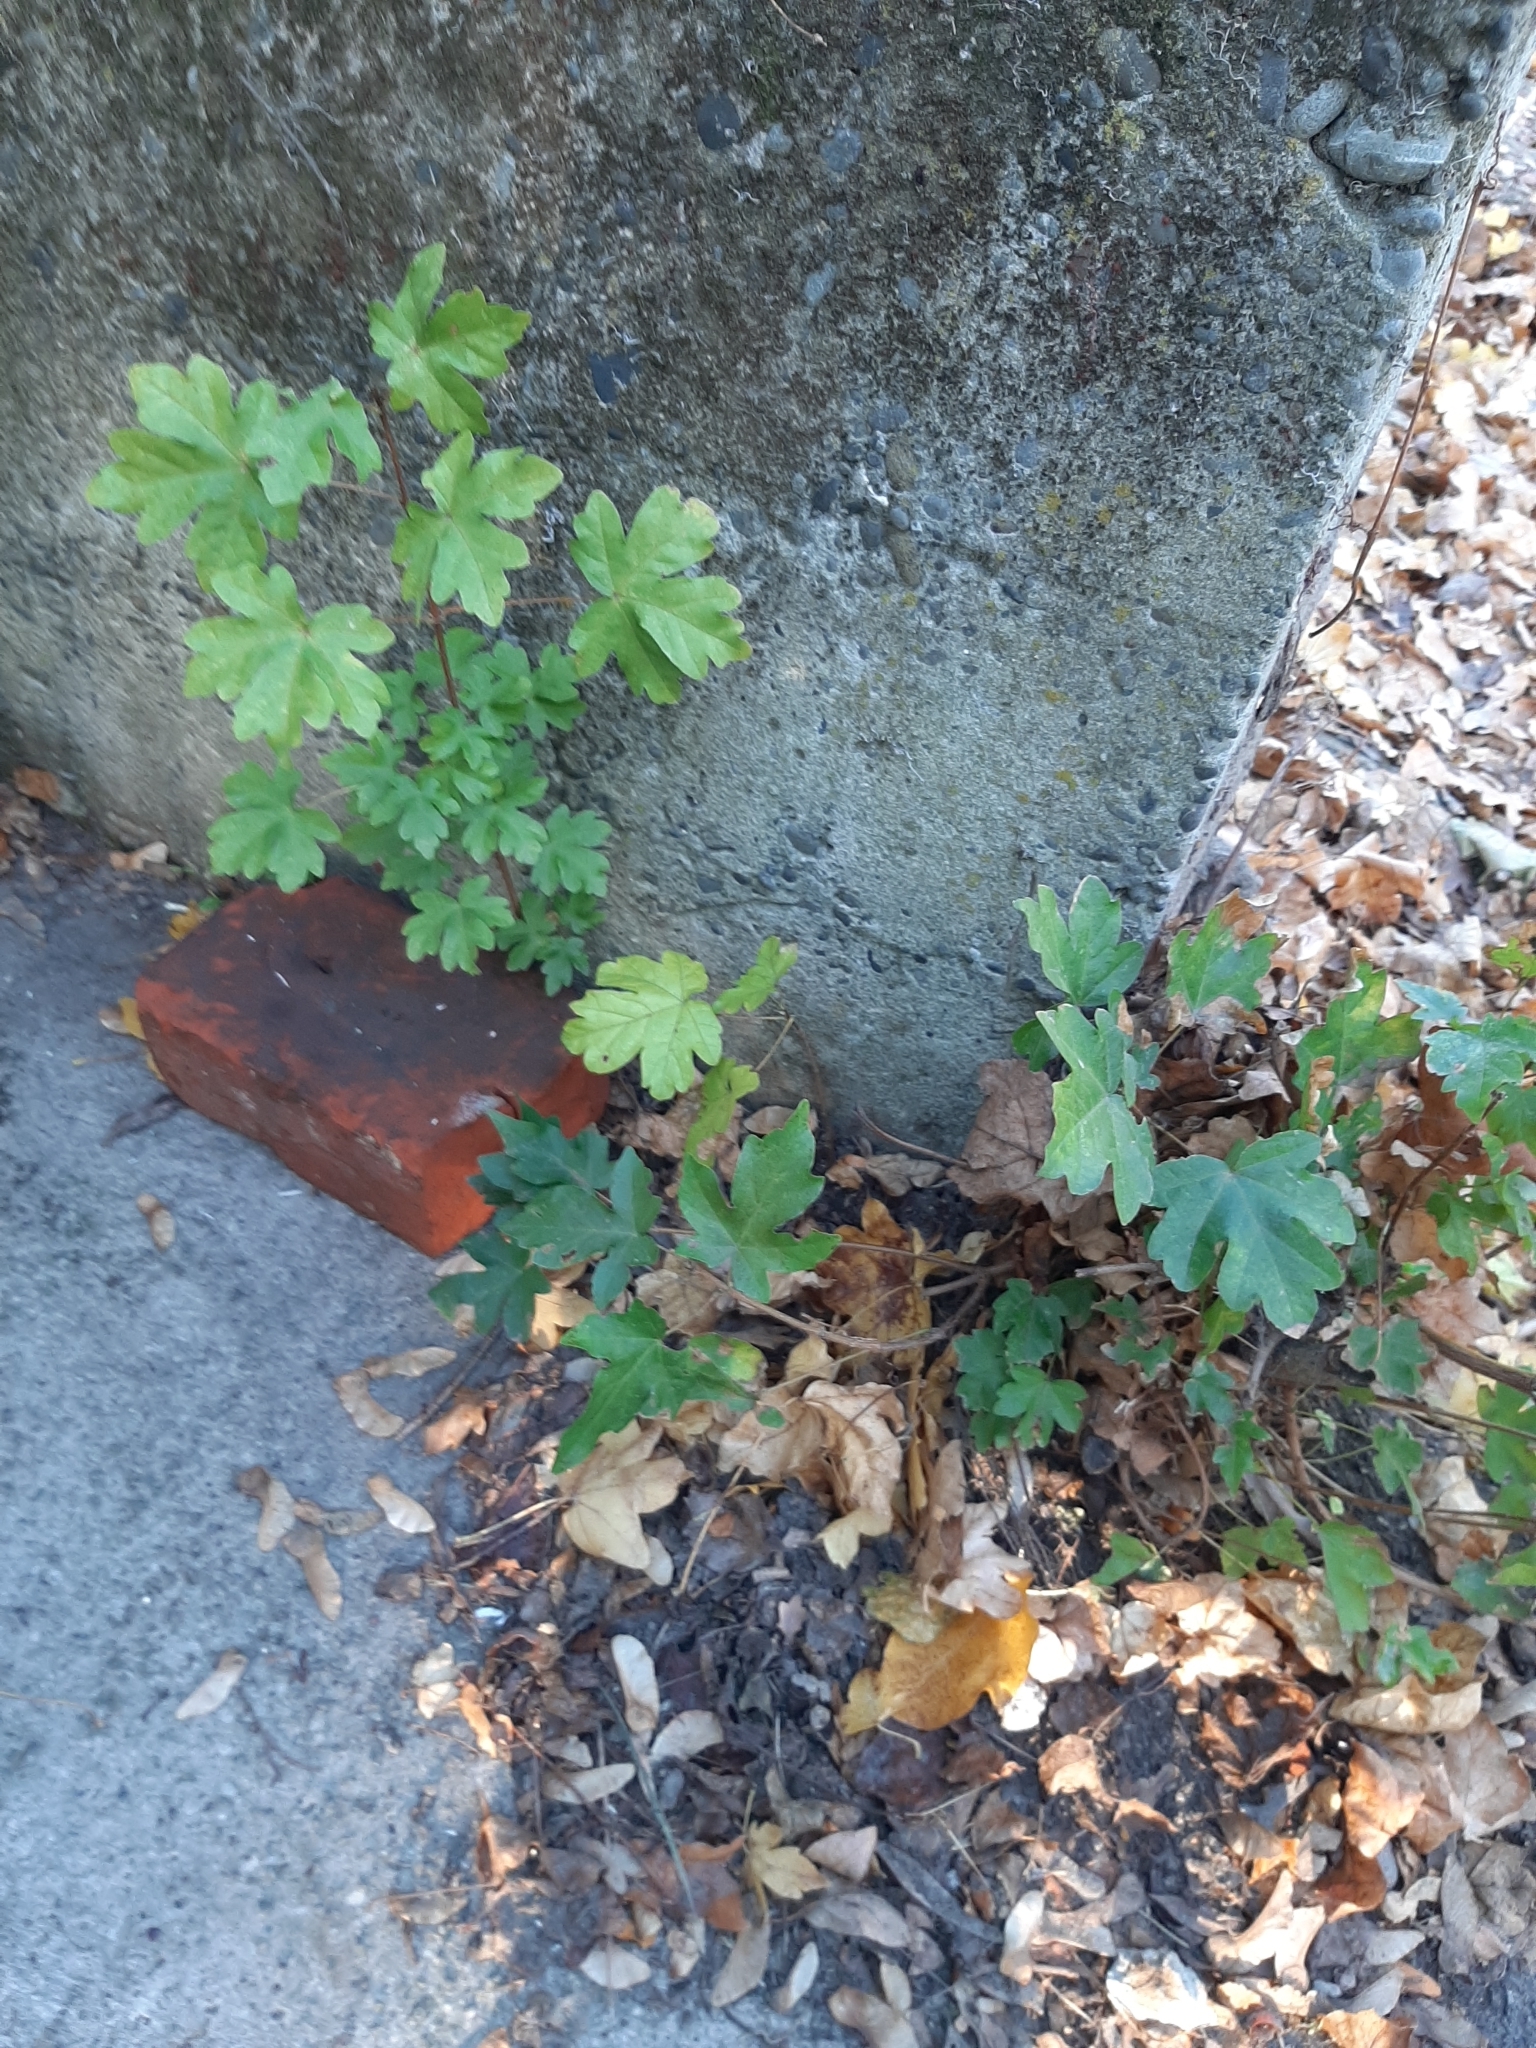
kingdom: Plantae
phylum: Tracheophyta
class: Magnoliopsida
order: Sapindales
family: Sapindaceae
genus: Acer
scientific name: Acer campestre
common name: Field maple
